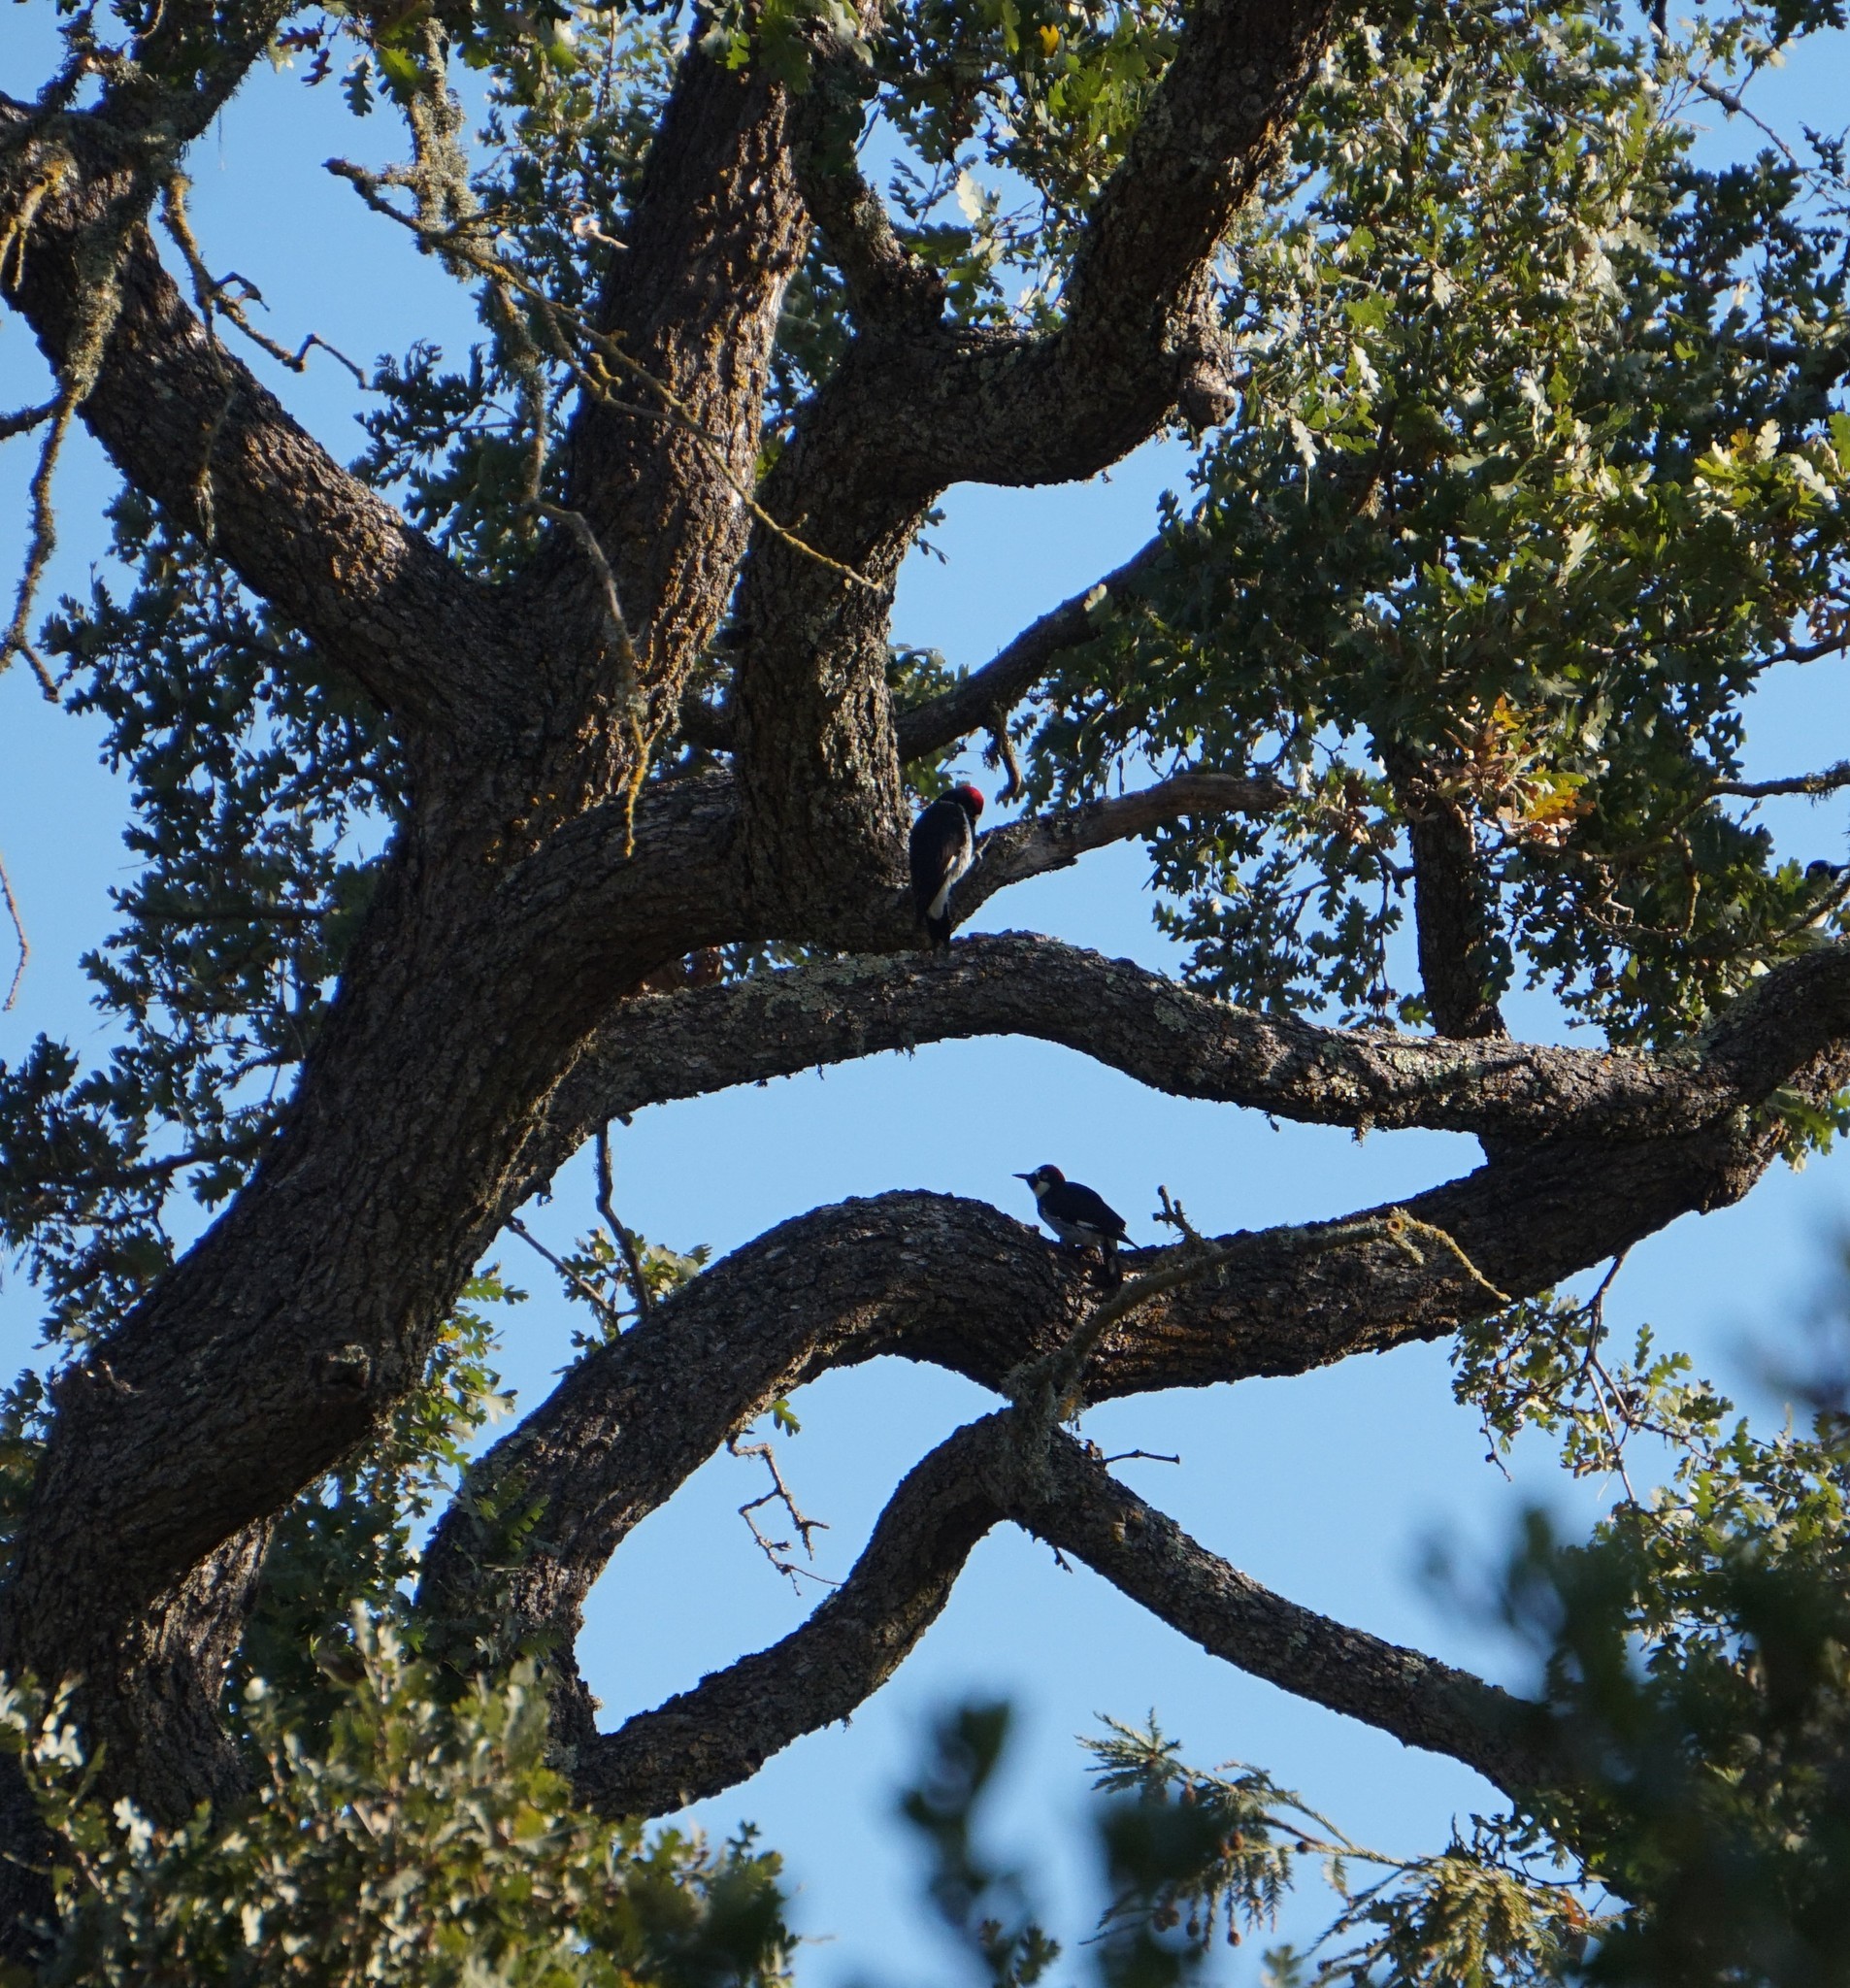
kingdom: Animalia
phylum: Chordata
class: Aves
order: Piciformes
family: Picidae
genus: Melanerpes
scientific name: Melanerpes formicivorus
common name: Acorn woodpecker
